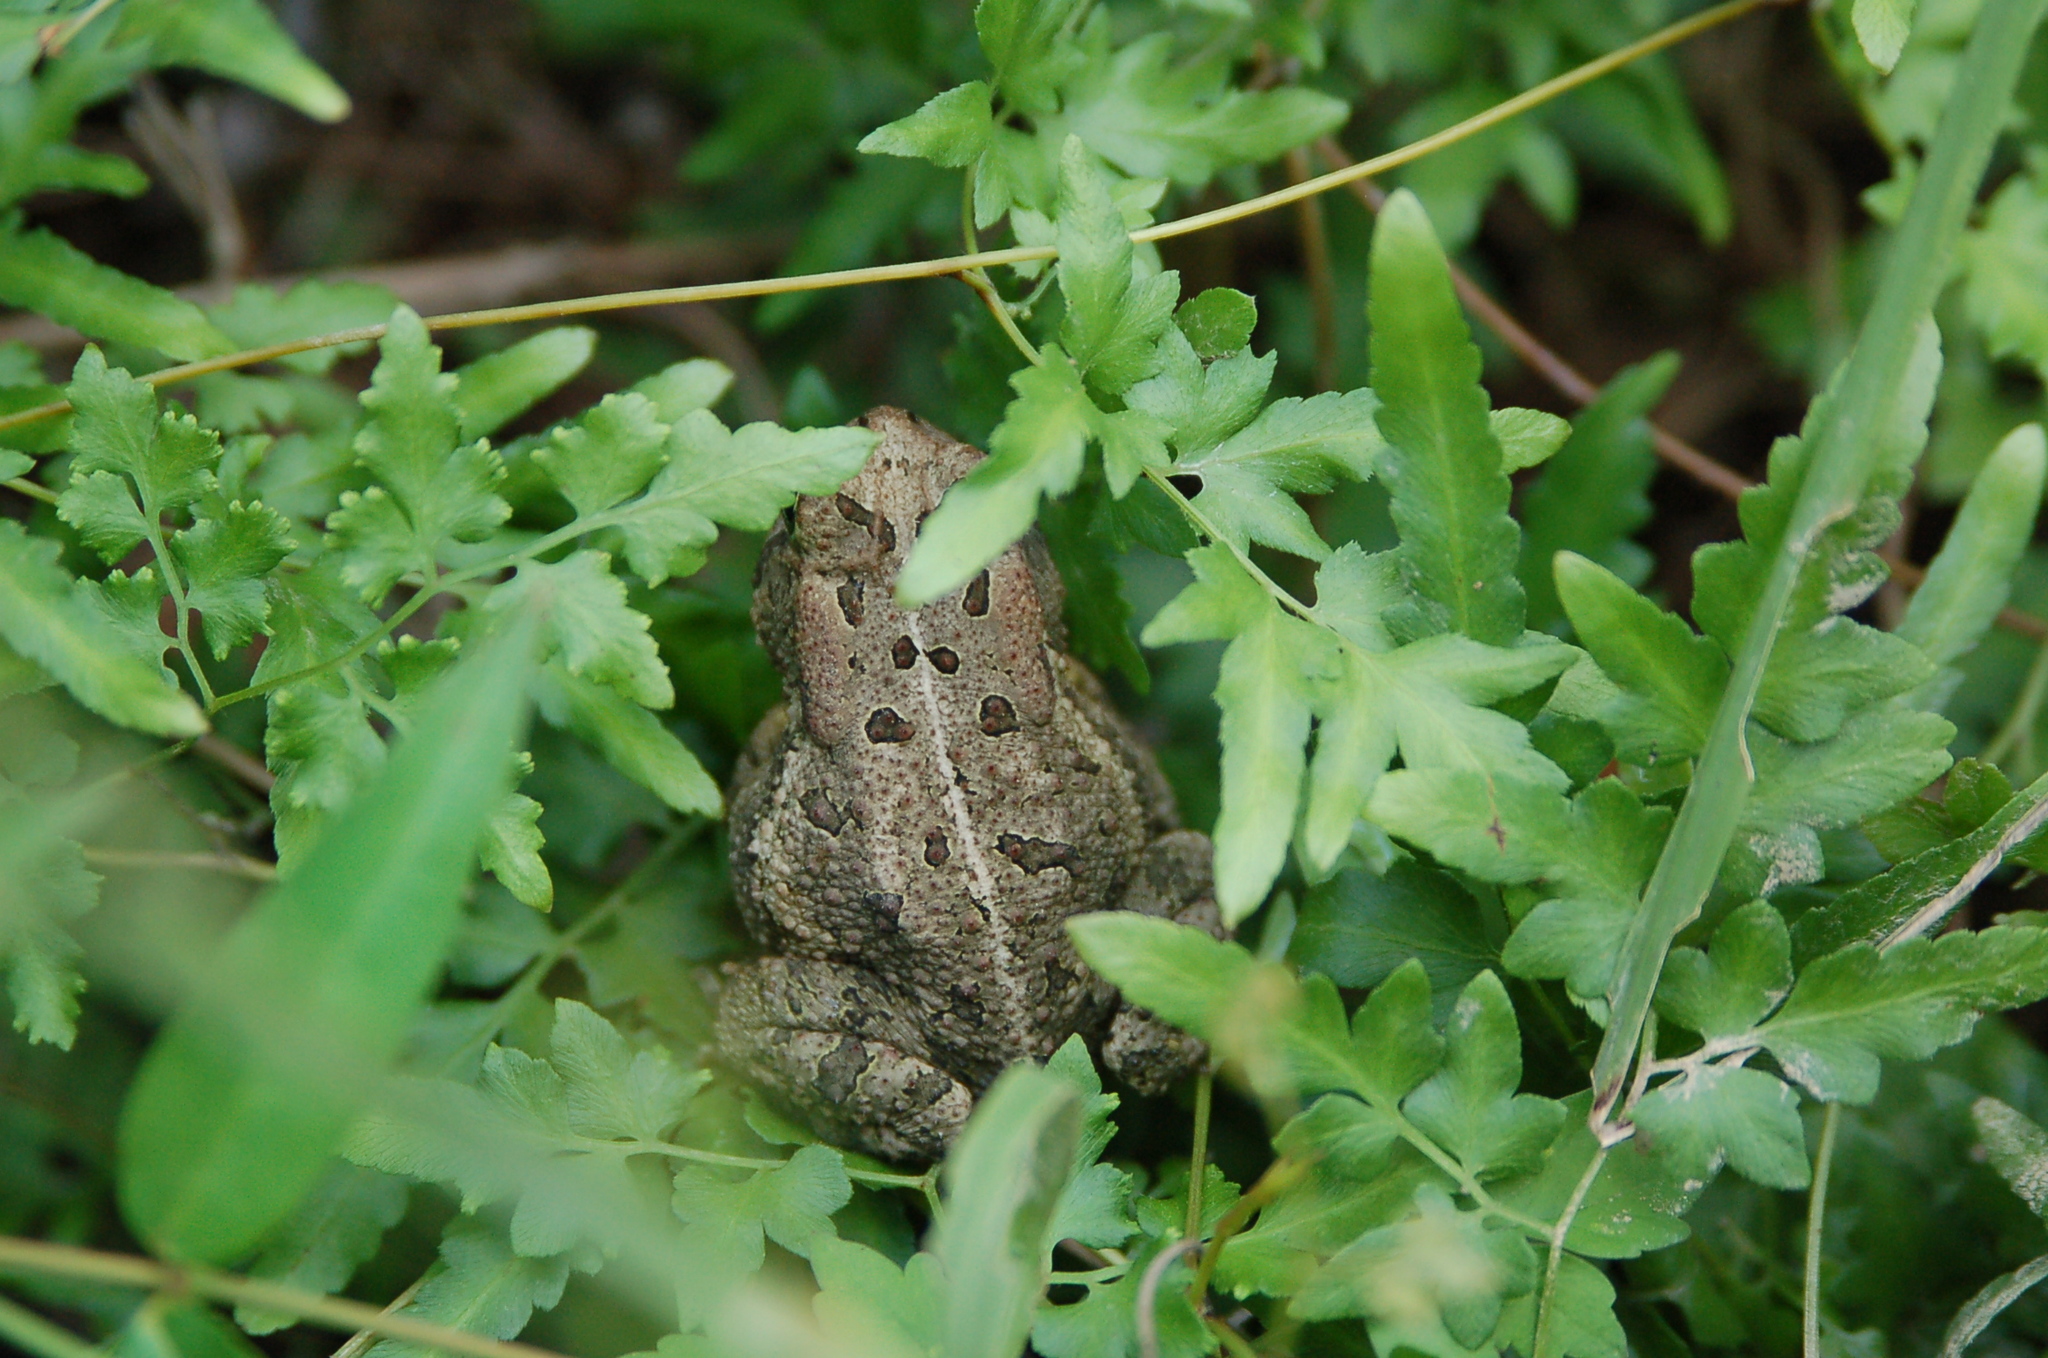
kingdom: Animalia
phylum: Chordata
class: Amphibia
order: Anura
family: Bufonidae
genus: Anaxyrus
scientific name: Anaxyrus fowleri
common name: Fowler's toad
